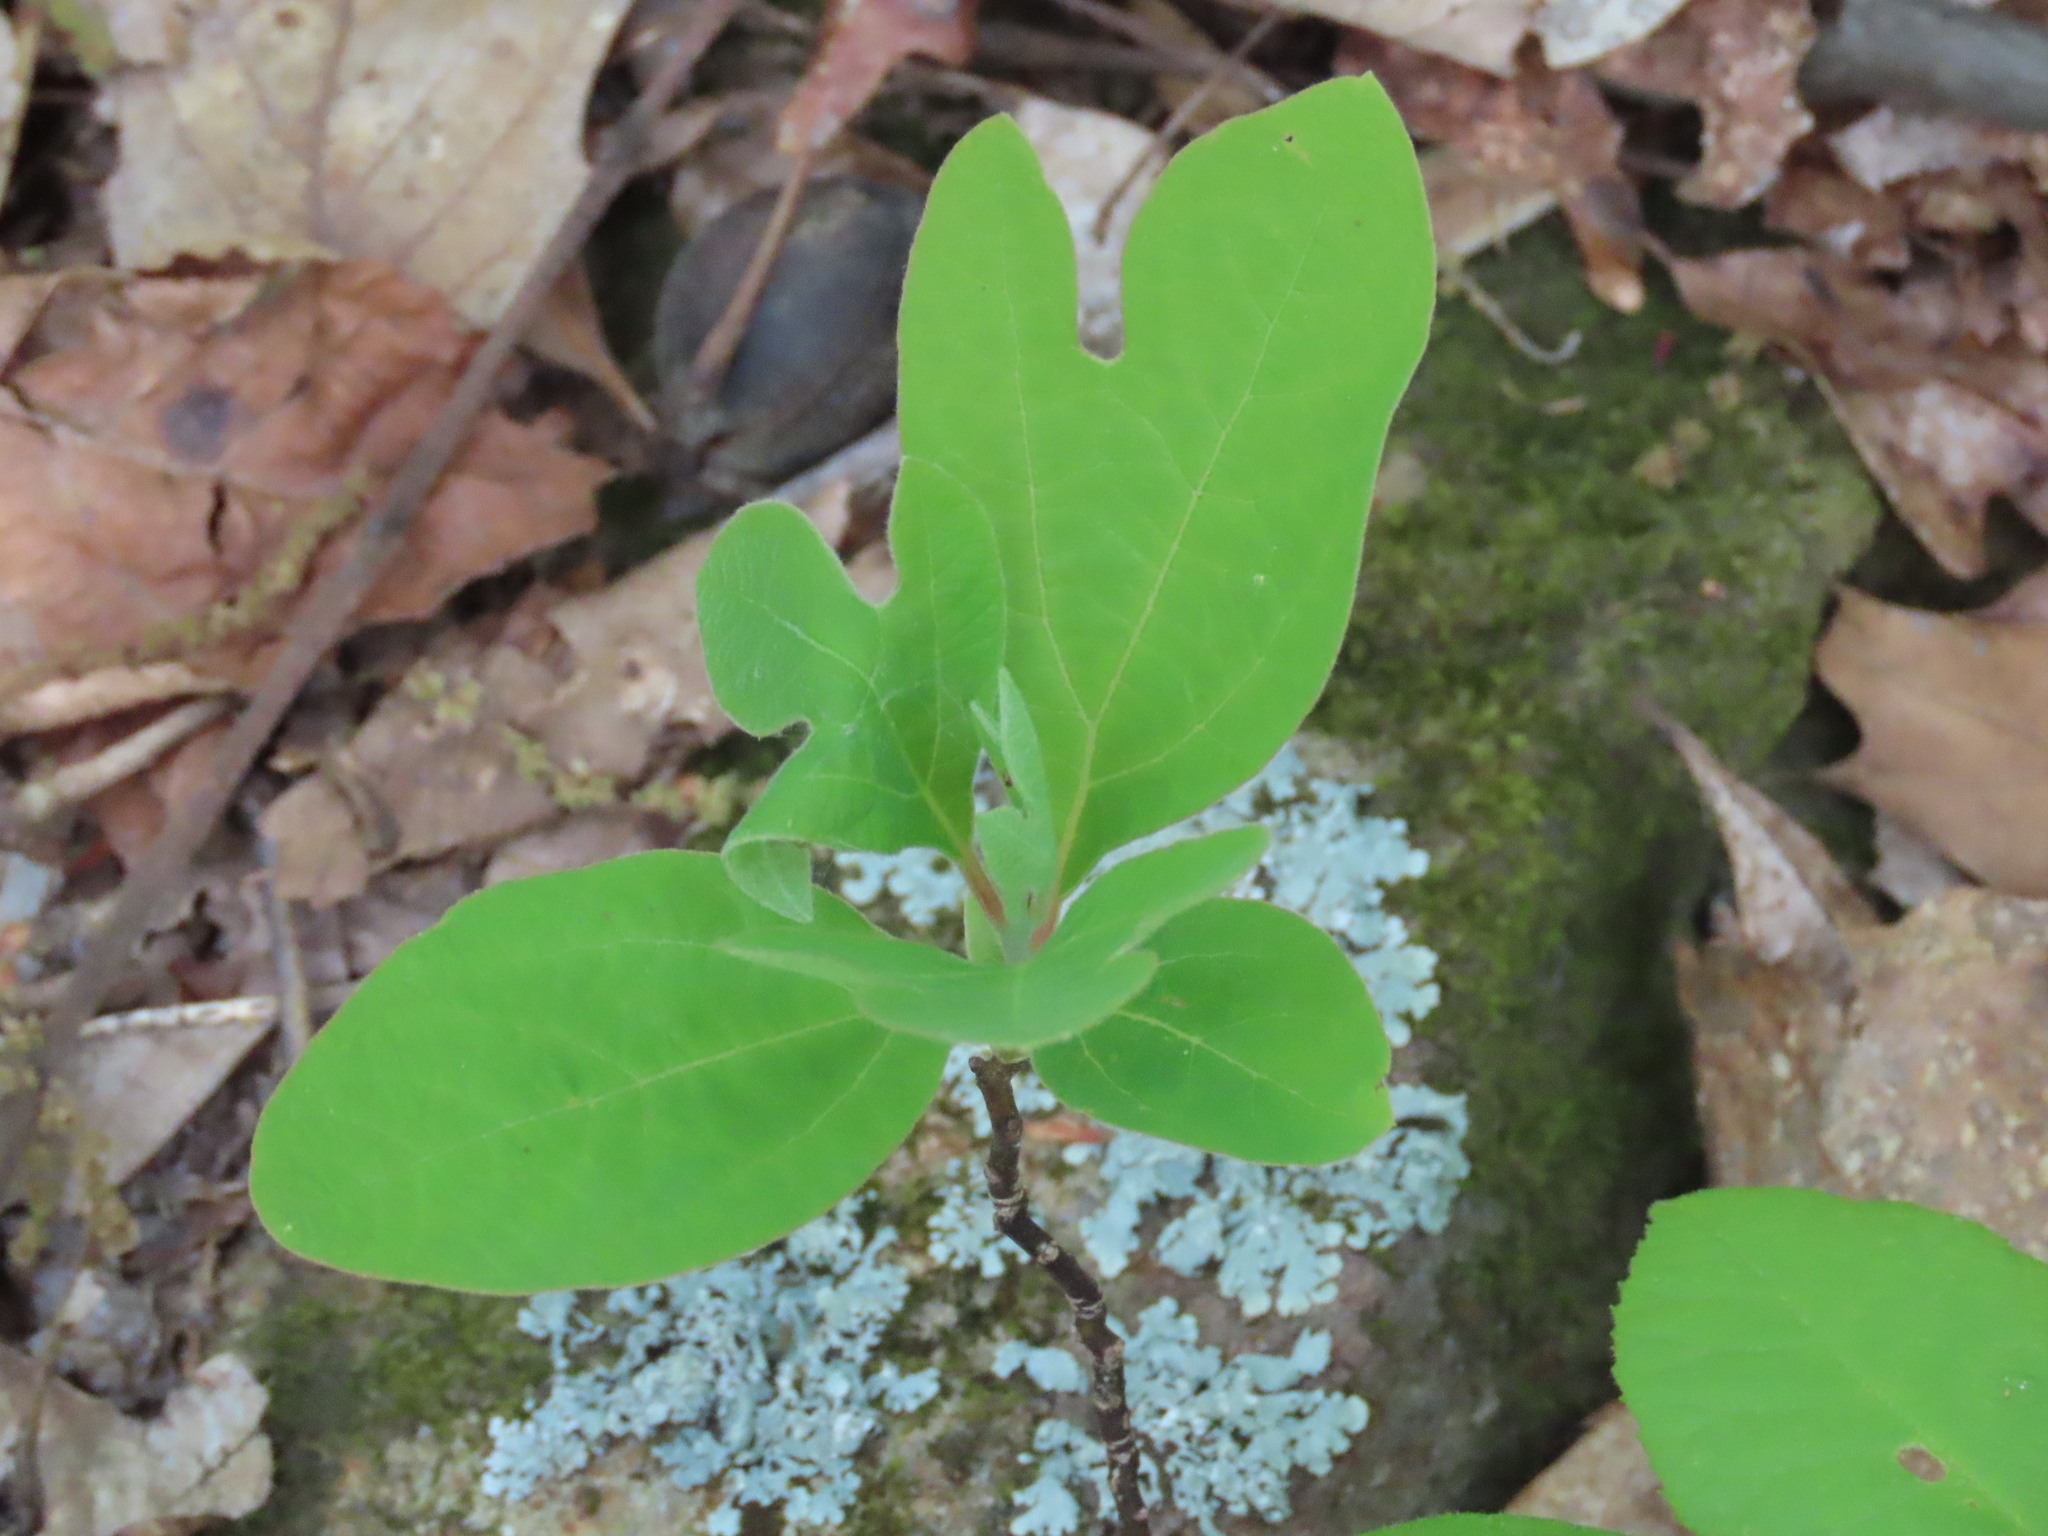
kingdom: Plantae
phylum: Tracheophyta
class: Magnoliopsida
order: Laurales
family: Lauraceae
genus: Sassafras
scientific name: Sassafras albidum
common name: Sassafras
